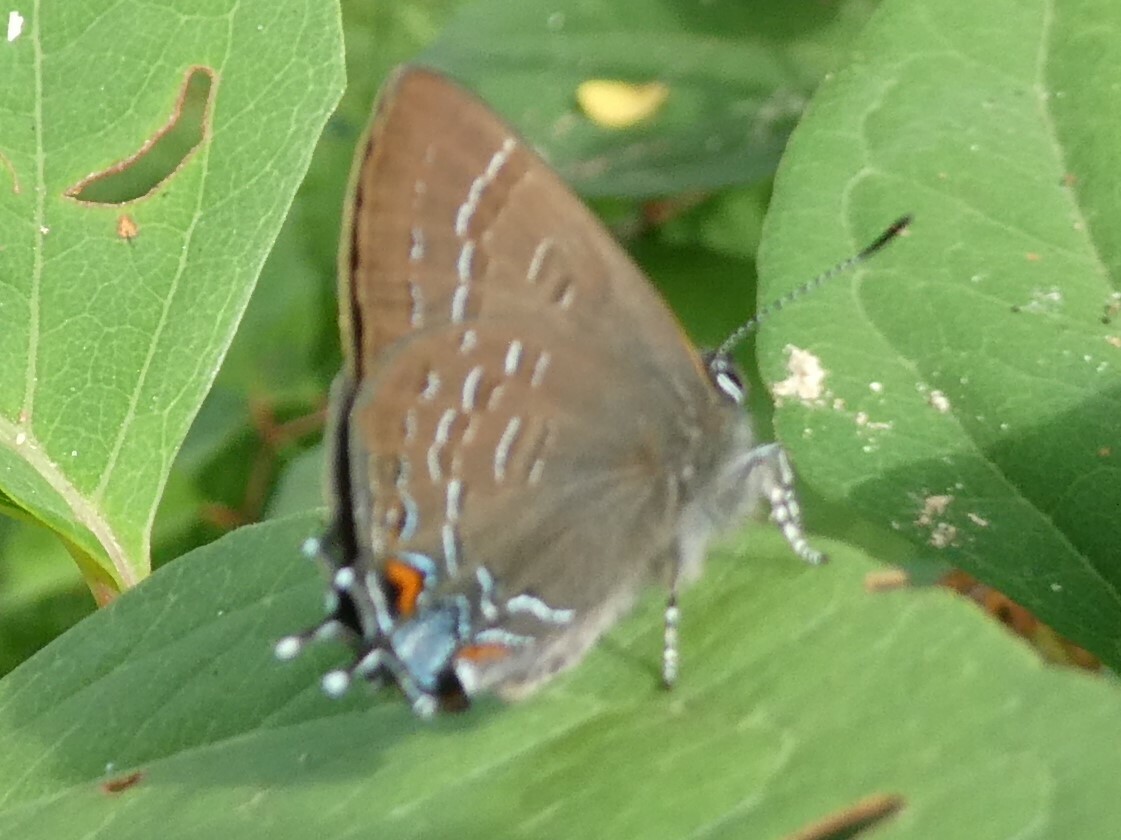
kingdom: Animalia
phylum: Arthropoda
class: Insecta
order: Lepidoptera
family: Lycaenidae
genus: Satyrium
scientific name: Satyrium calanus
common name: Banded hairstreak
